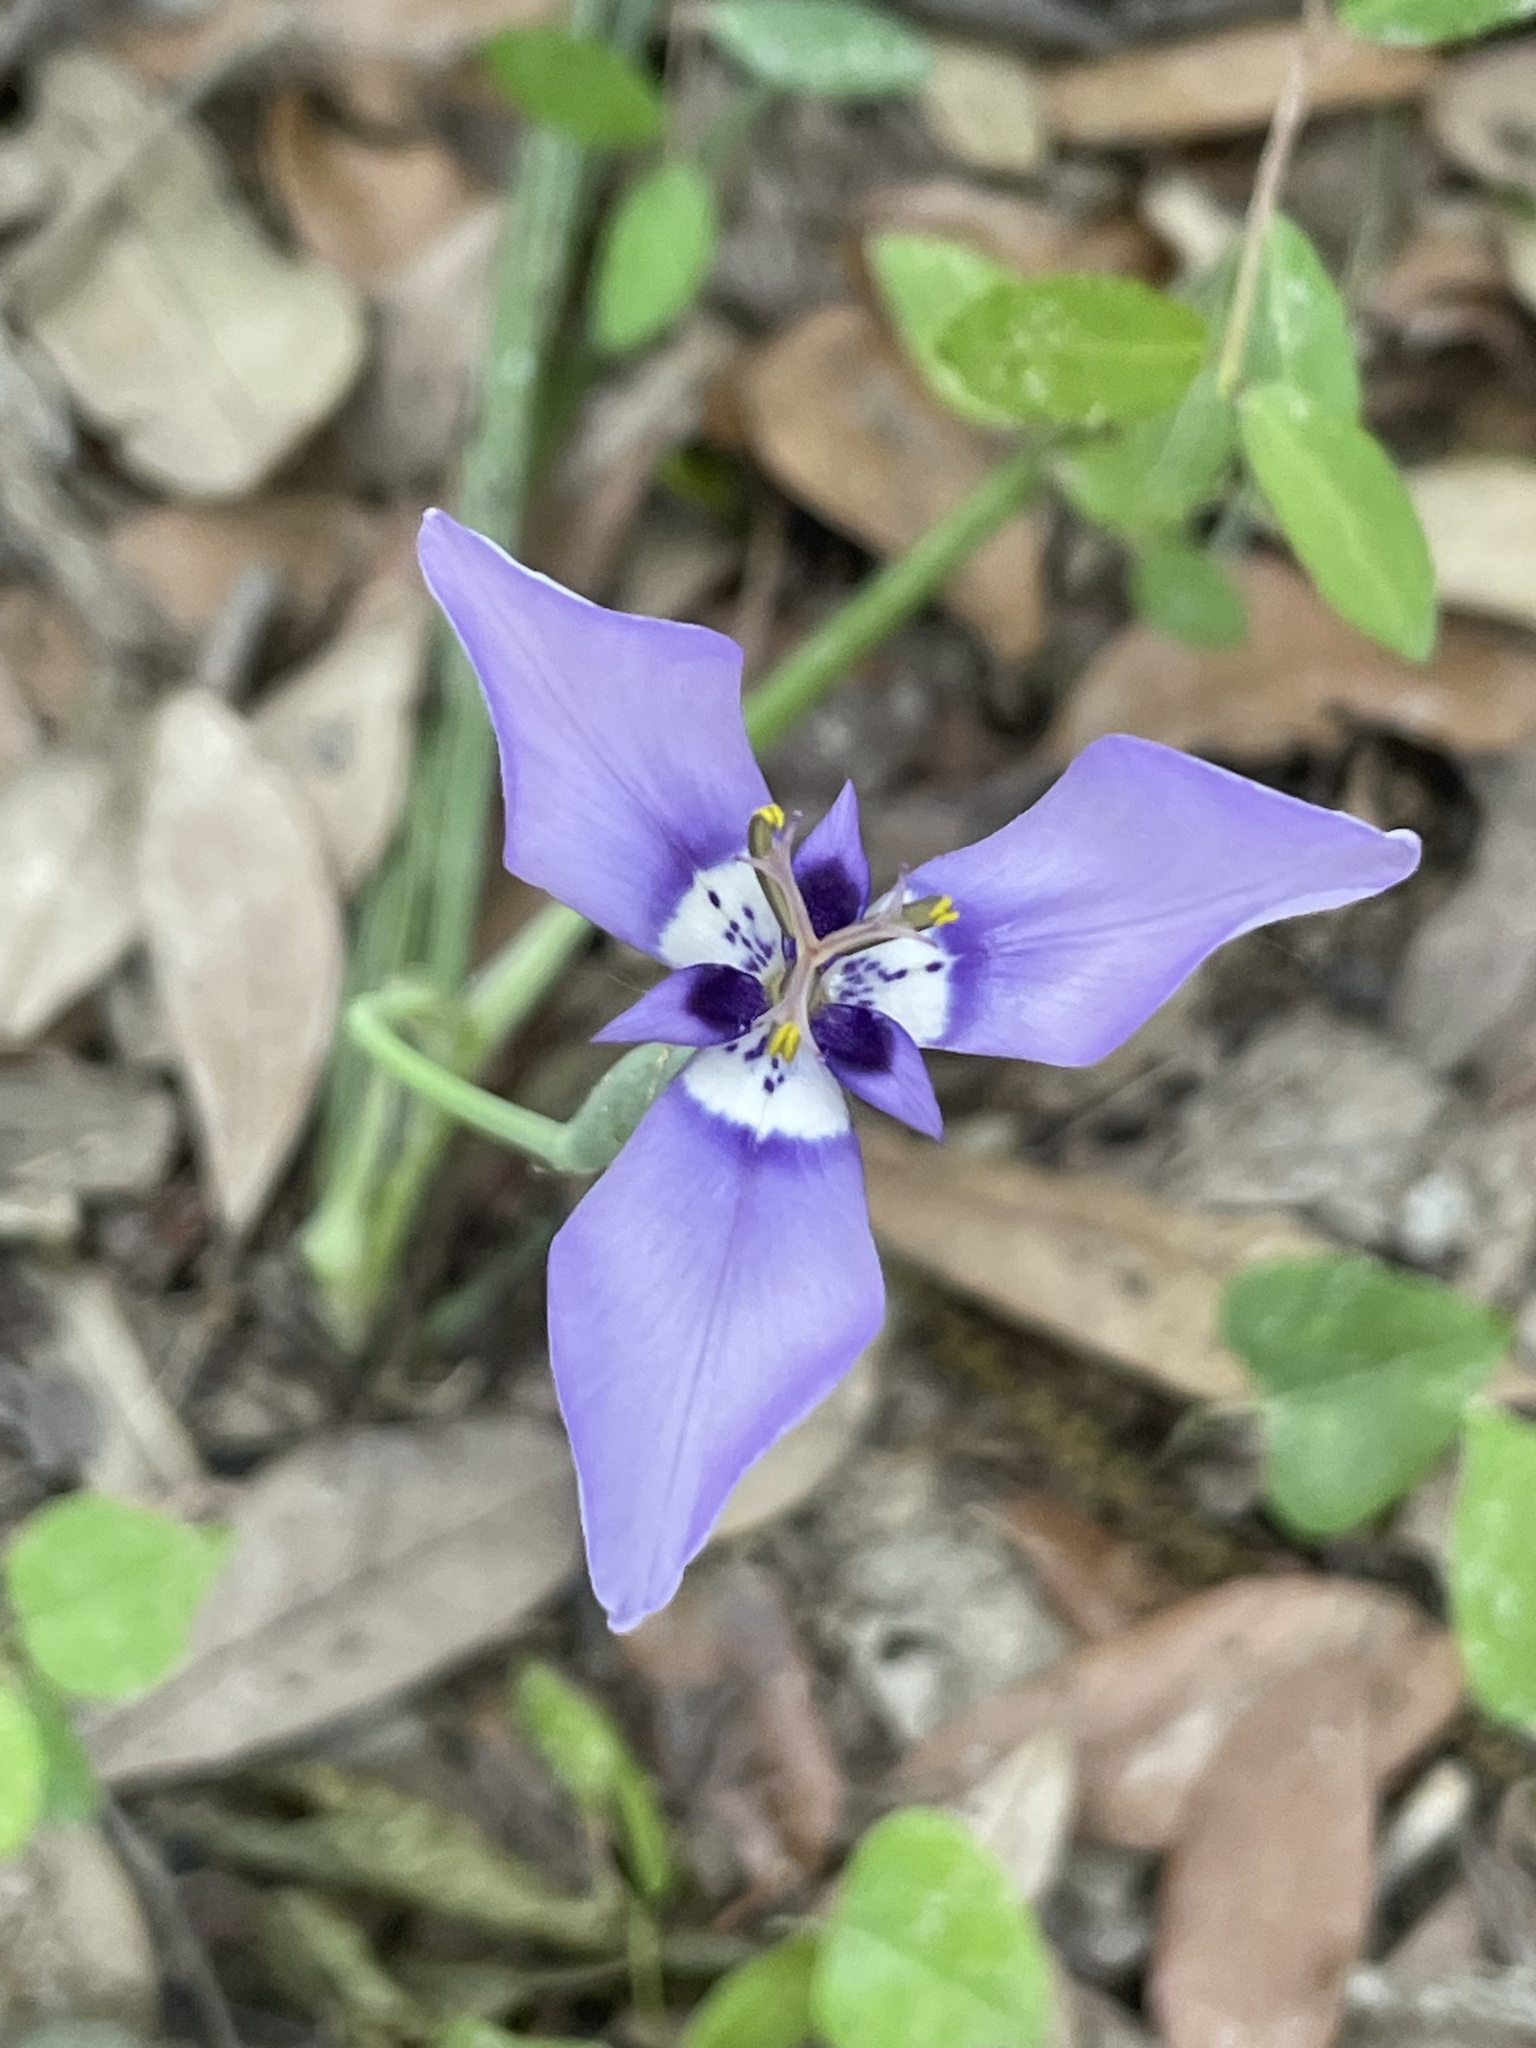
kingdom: Plantae
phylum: Tracheophyta
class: Liliopsida
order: Asparagales
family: Iridaceae
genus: Herbertia
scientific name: Herbertia lahue
